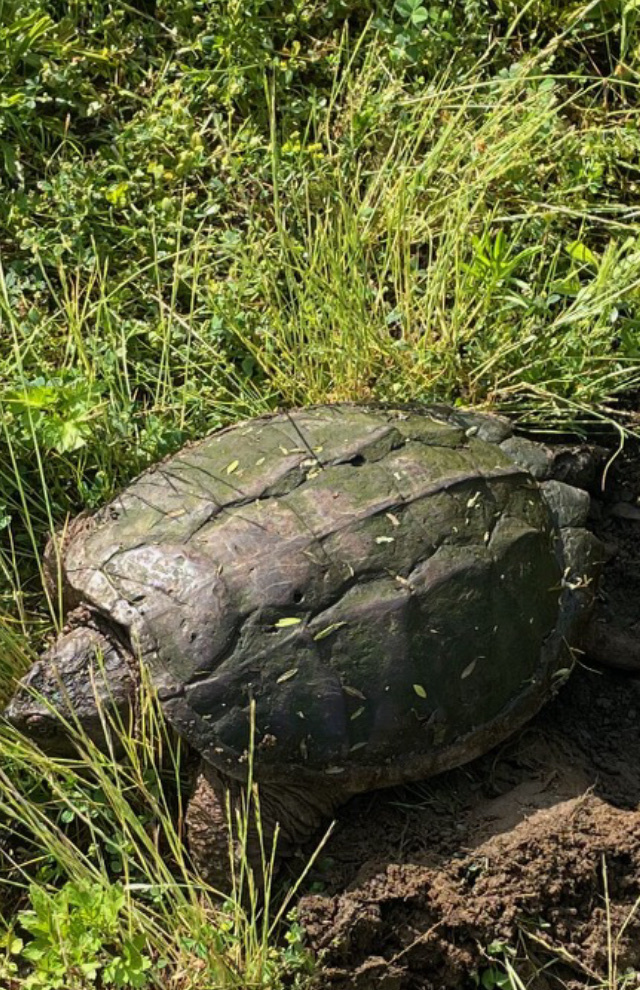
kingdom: Animalia
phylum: Chordata
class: Testudines
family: Chelydridae
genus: Chelydra
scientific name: Chelydra serpentina
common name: Common snapping turtle
